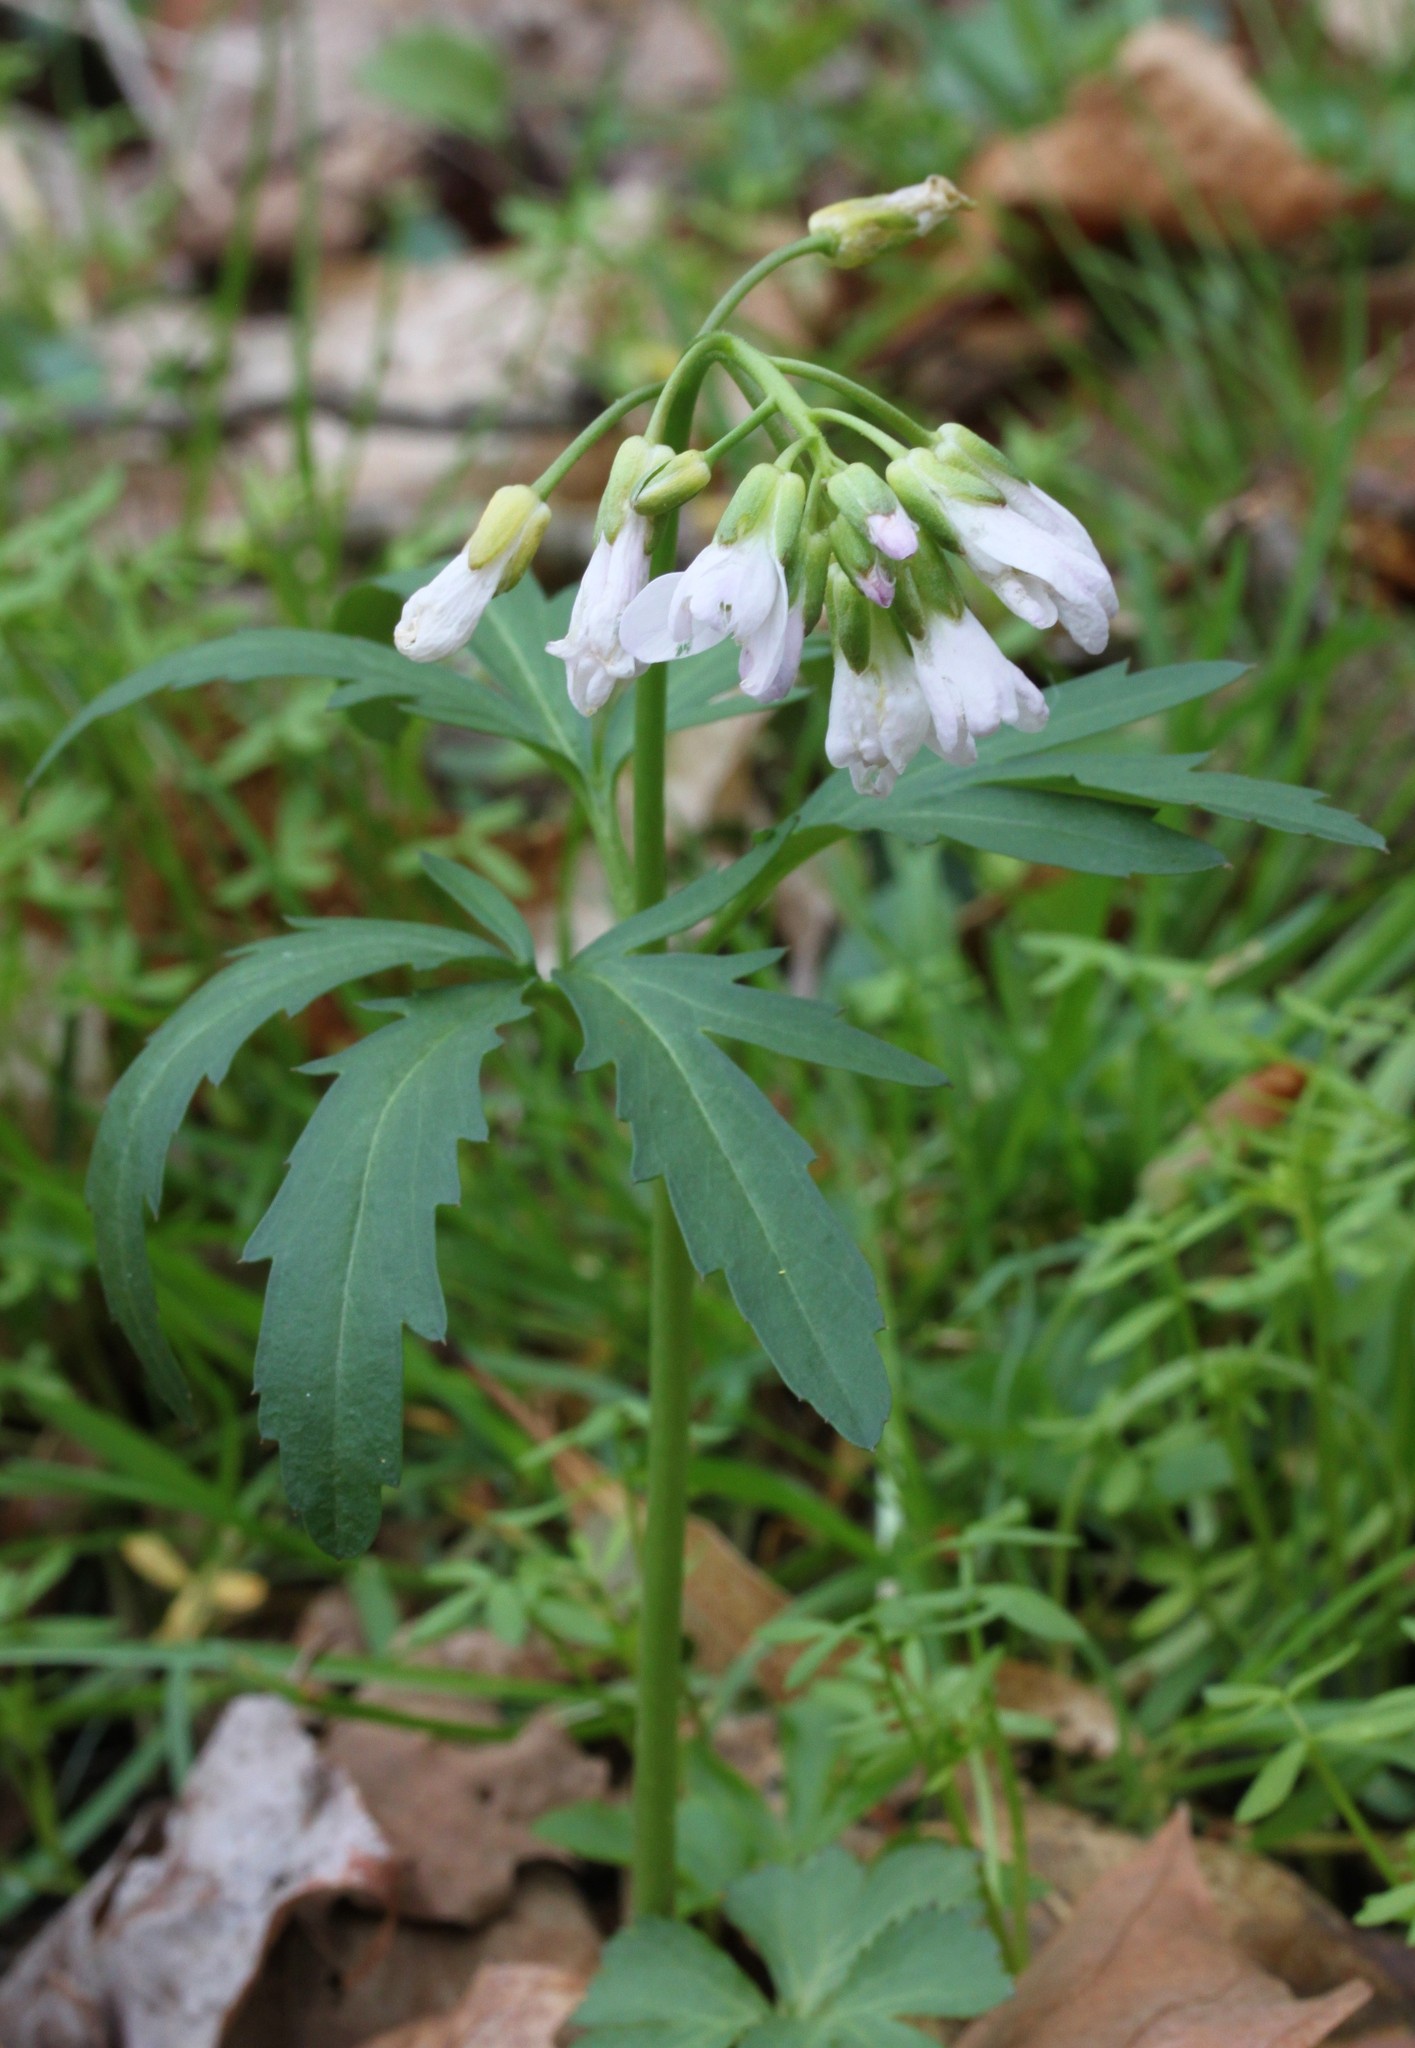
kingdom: Plantae
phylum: Tracheophyta
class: Magnoliopsida
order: Brassicales
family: Brassicaceae
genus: Cardamine
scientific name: Cardamine concatenata
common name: Cut-leaf toothcup
